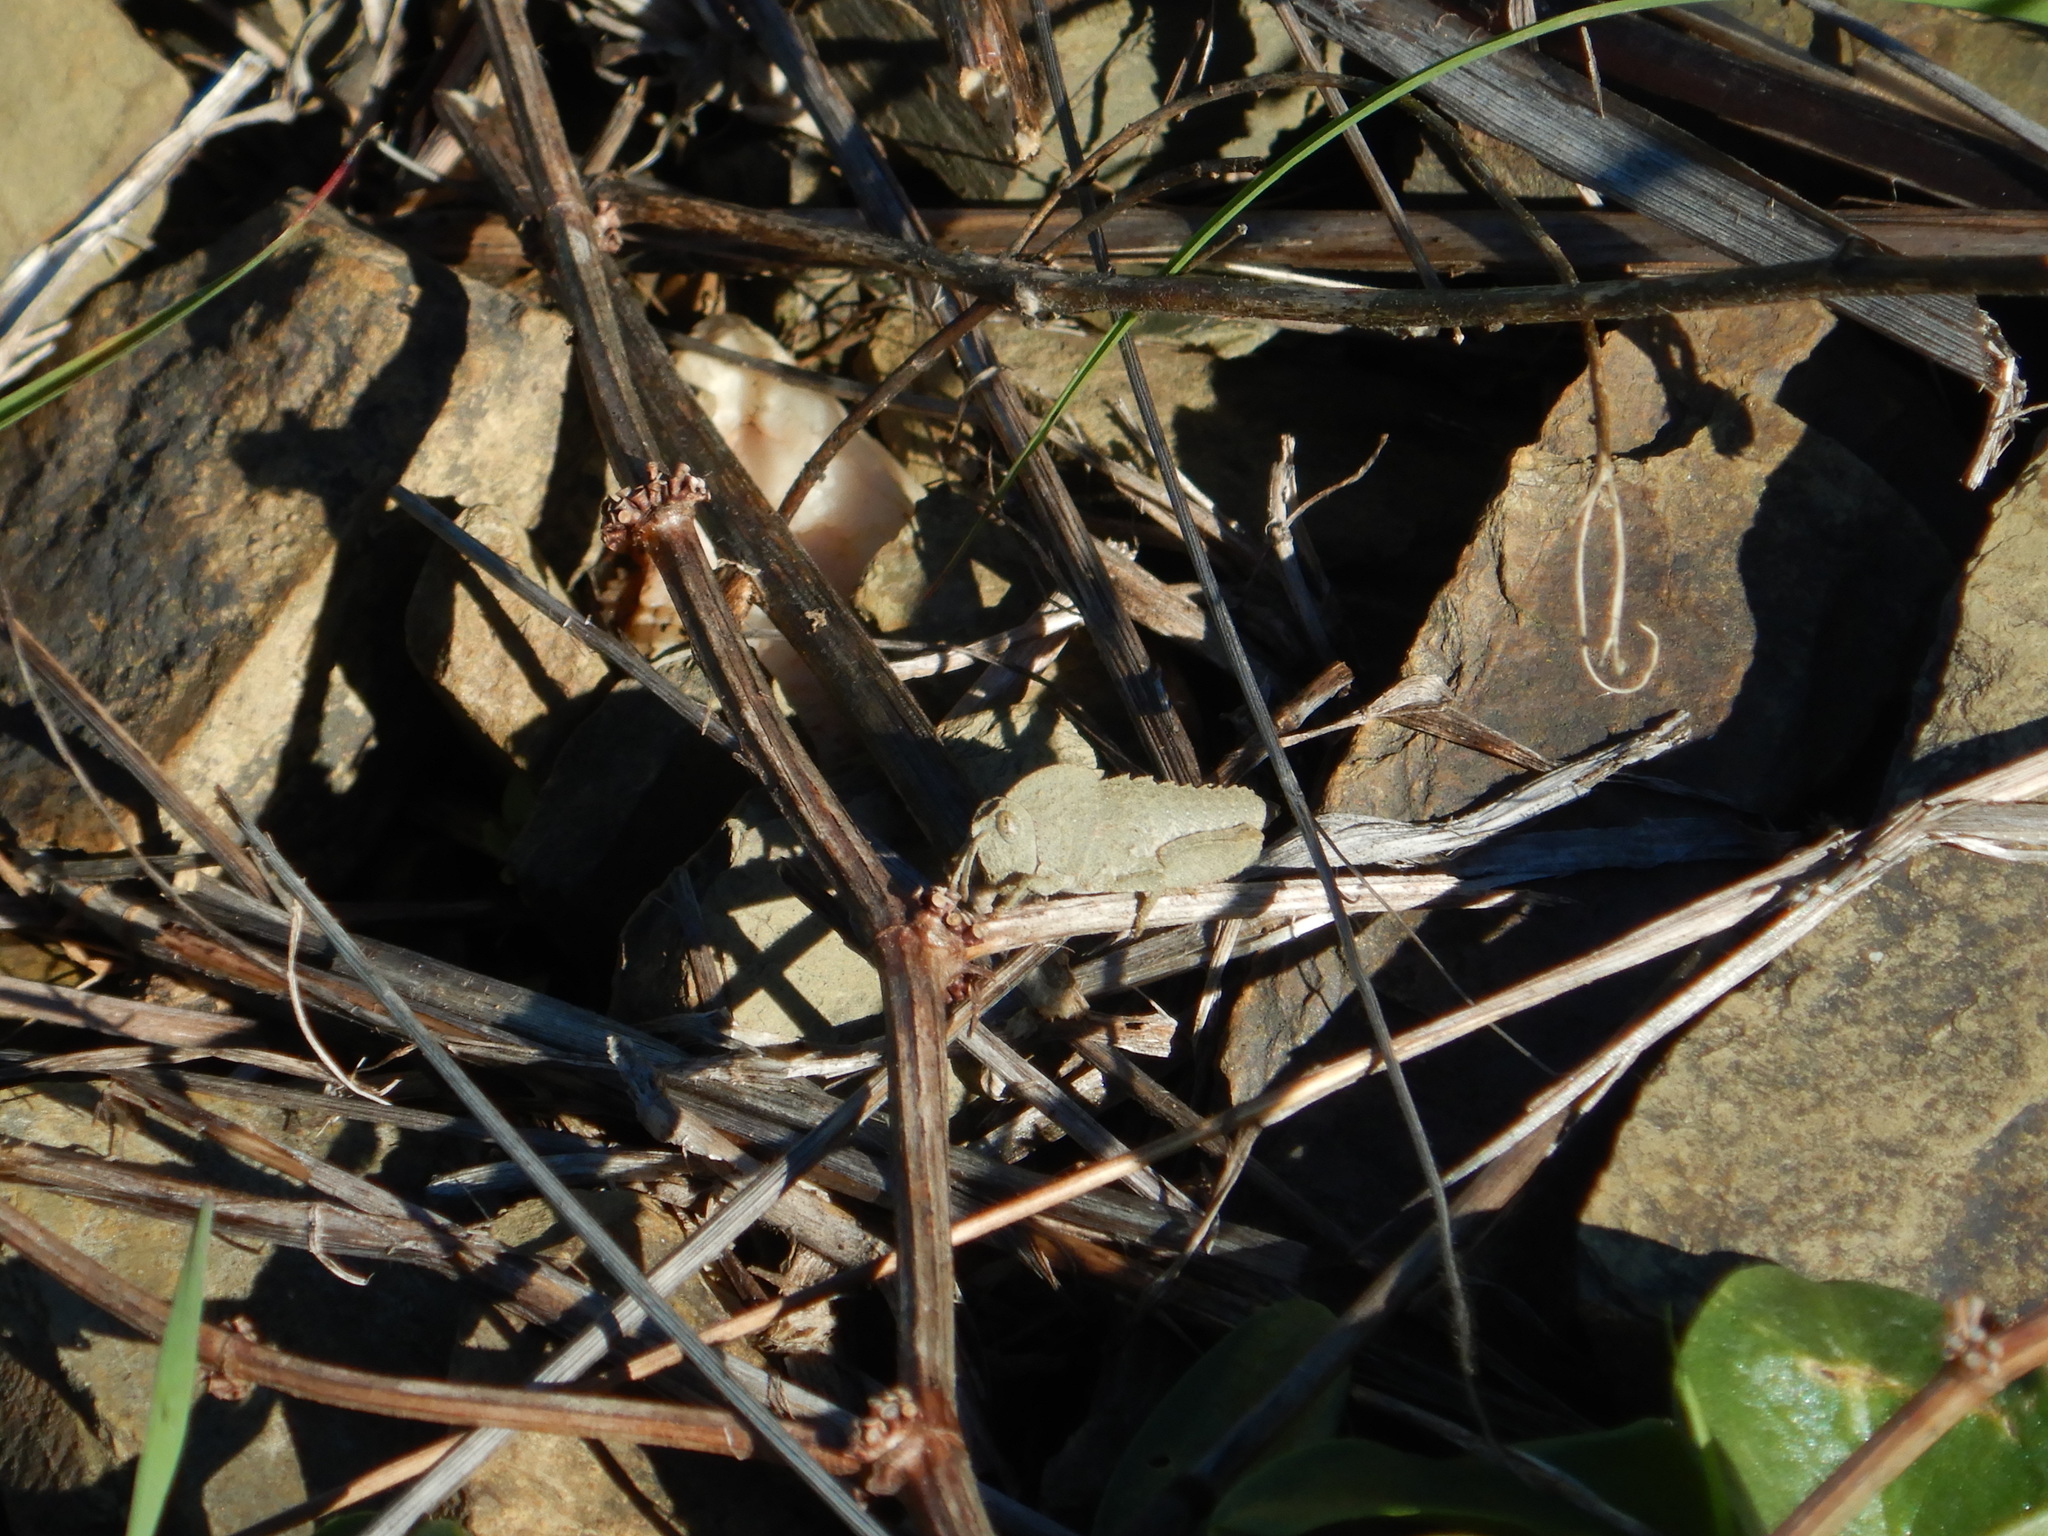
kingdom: Animalia
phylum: Arthropoda
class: Insecta
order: Orthoptera
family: Pamphagidae
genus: Ocnerodes
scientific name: Ocnerodes fallaciosus
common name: Misleading stone grasshopper
